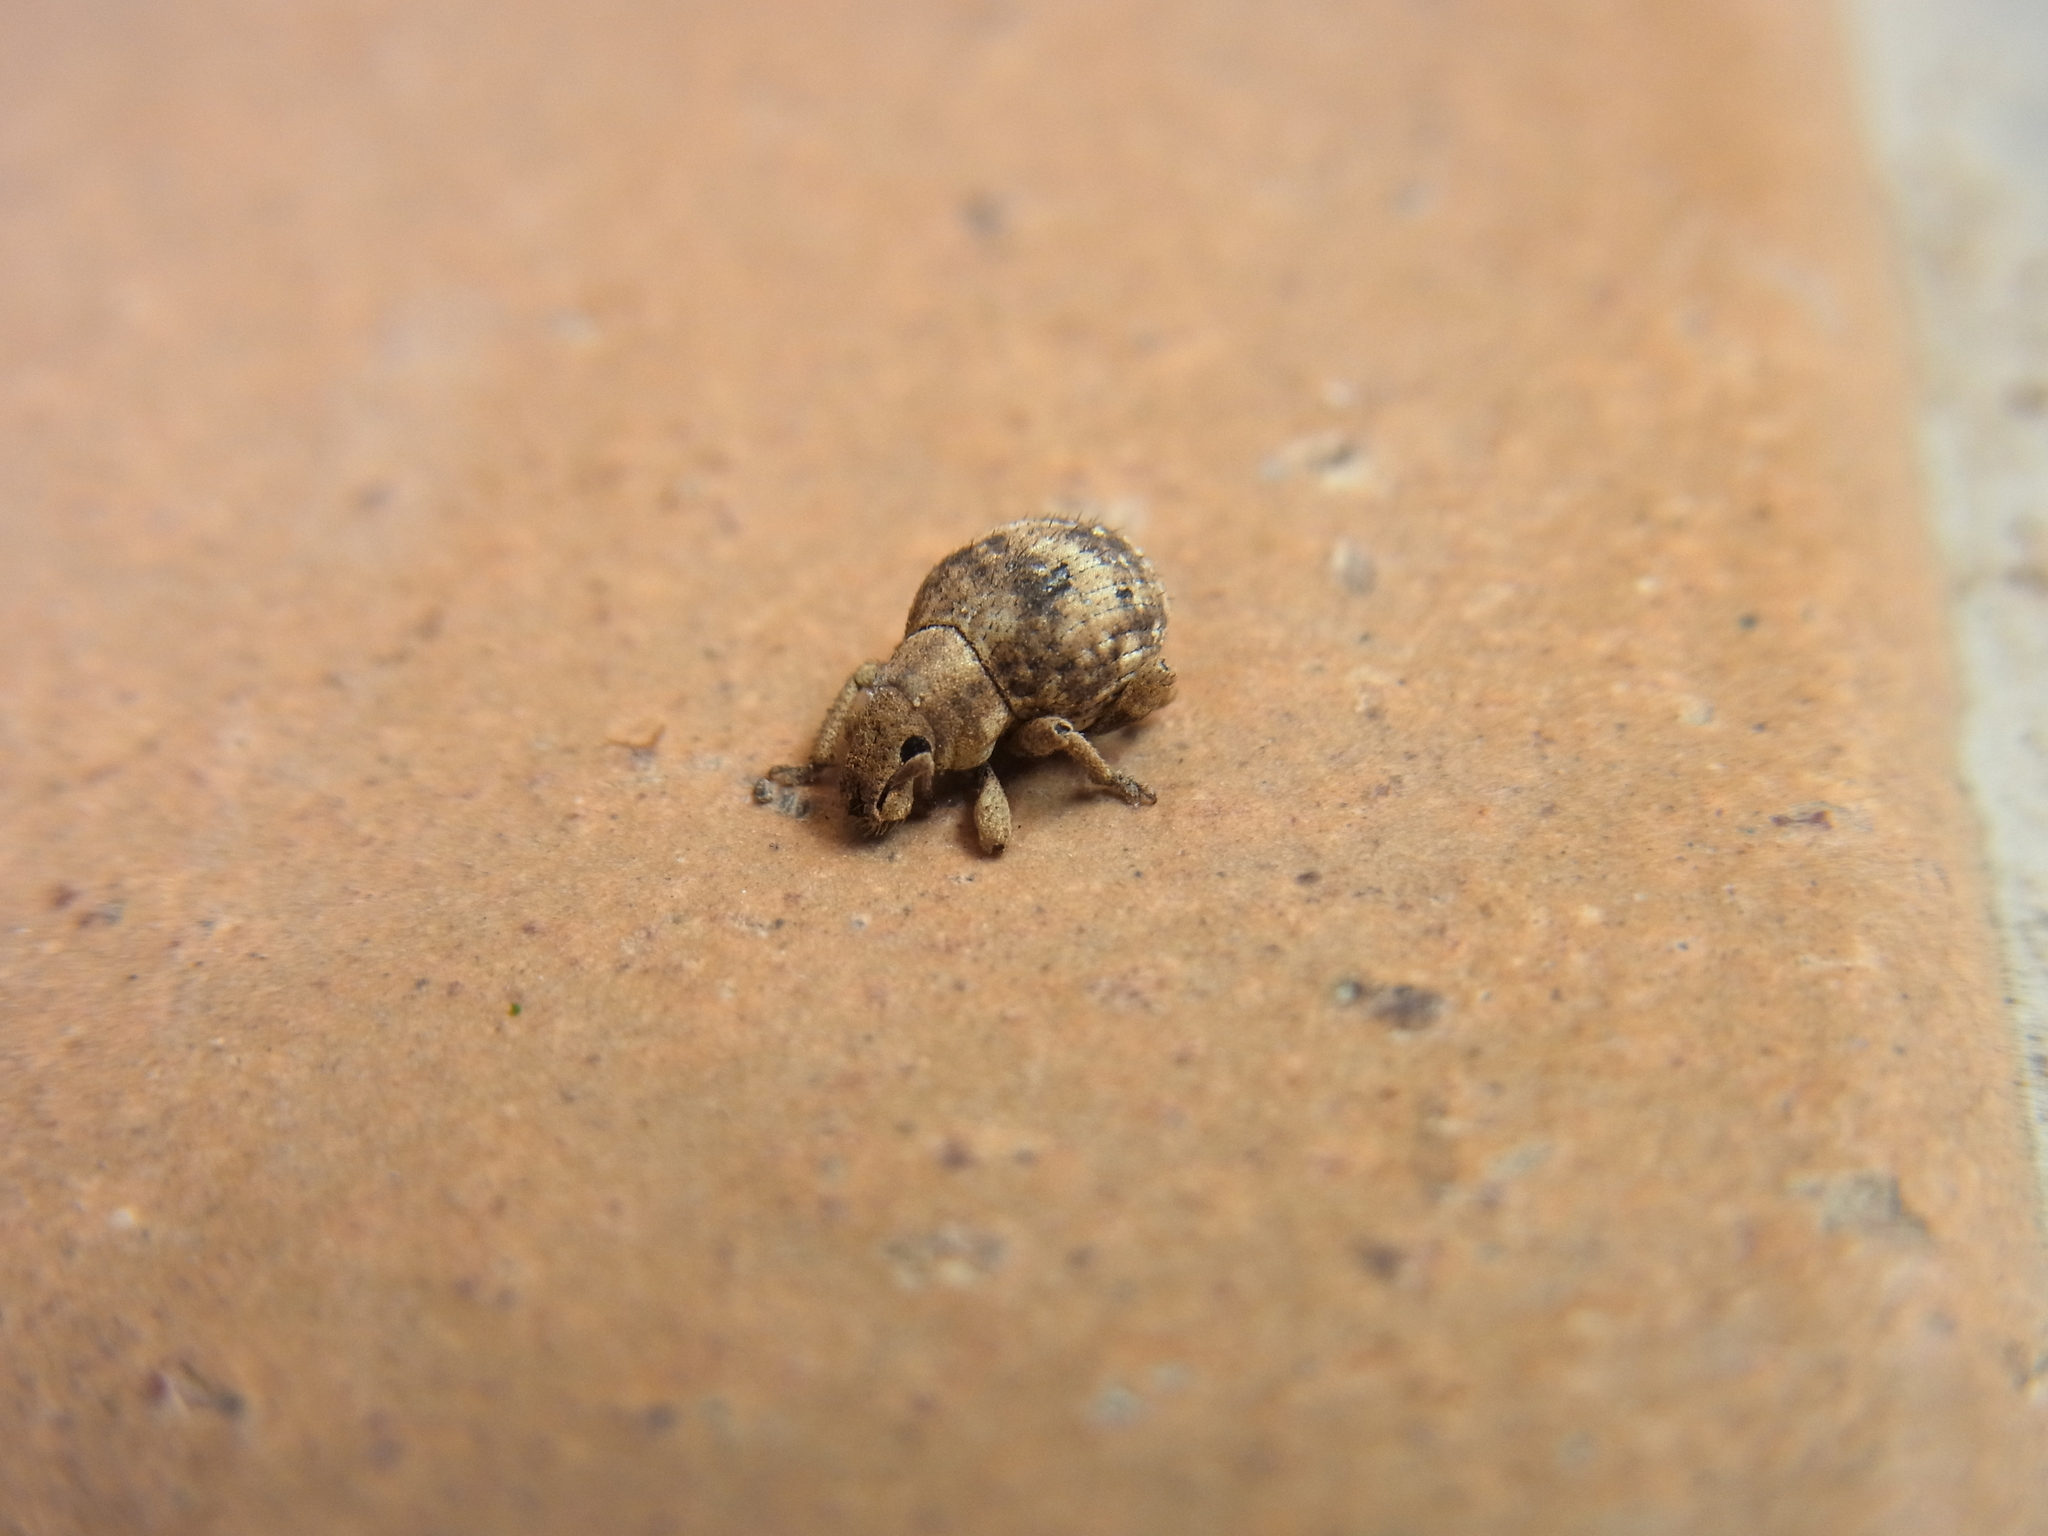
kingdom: Animalia
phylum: Arthropoda
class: Insecta
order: Coleoptera
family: Curculionidae
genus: Pseudocneorhinus
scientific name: Pseudocneorhinus bifasciatus
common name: Two-banded japanese weevil
